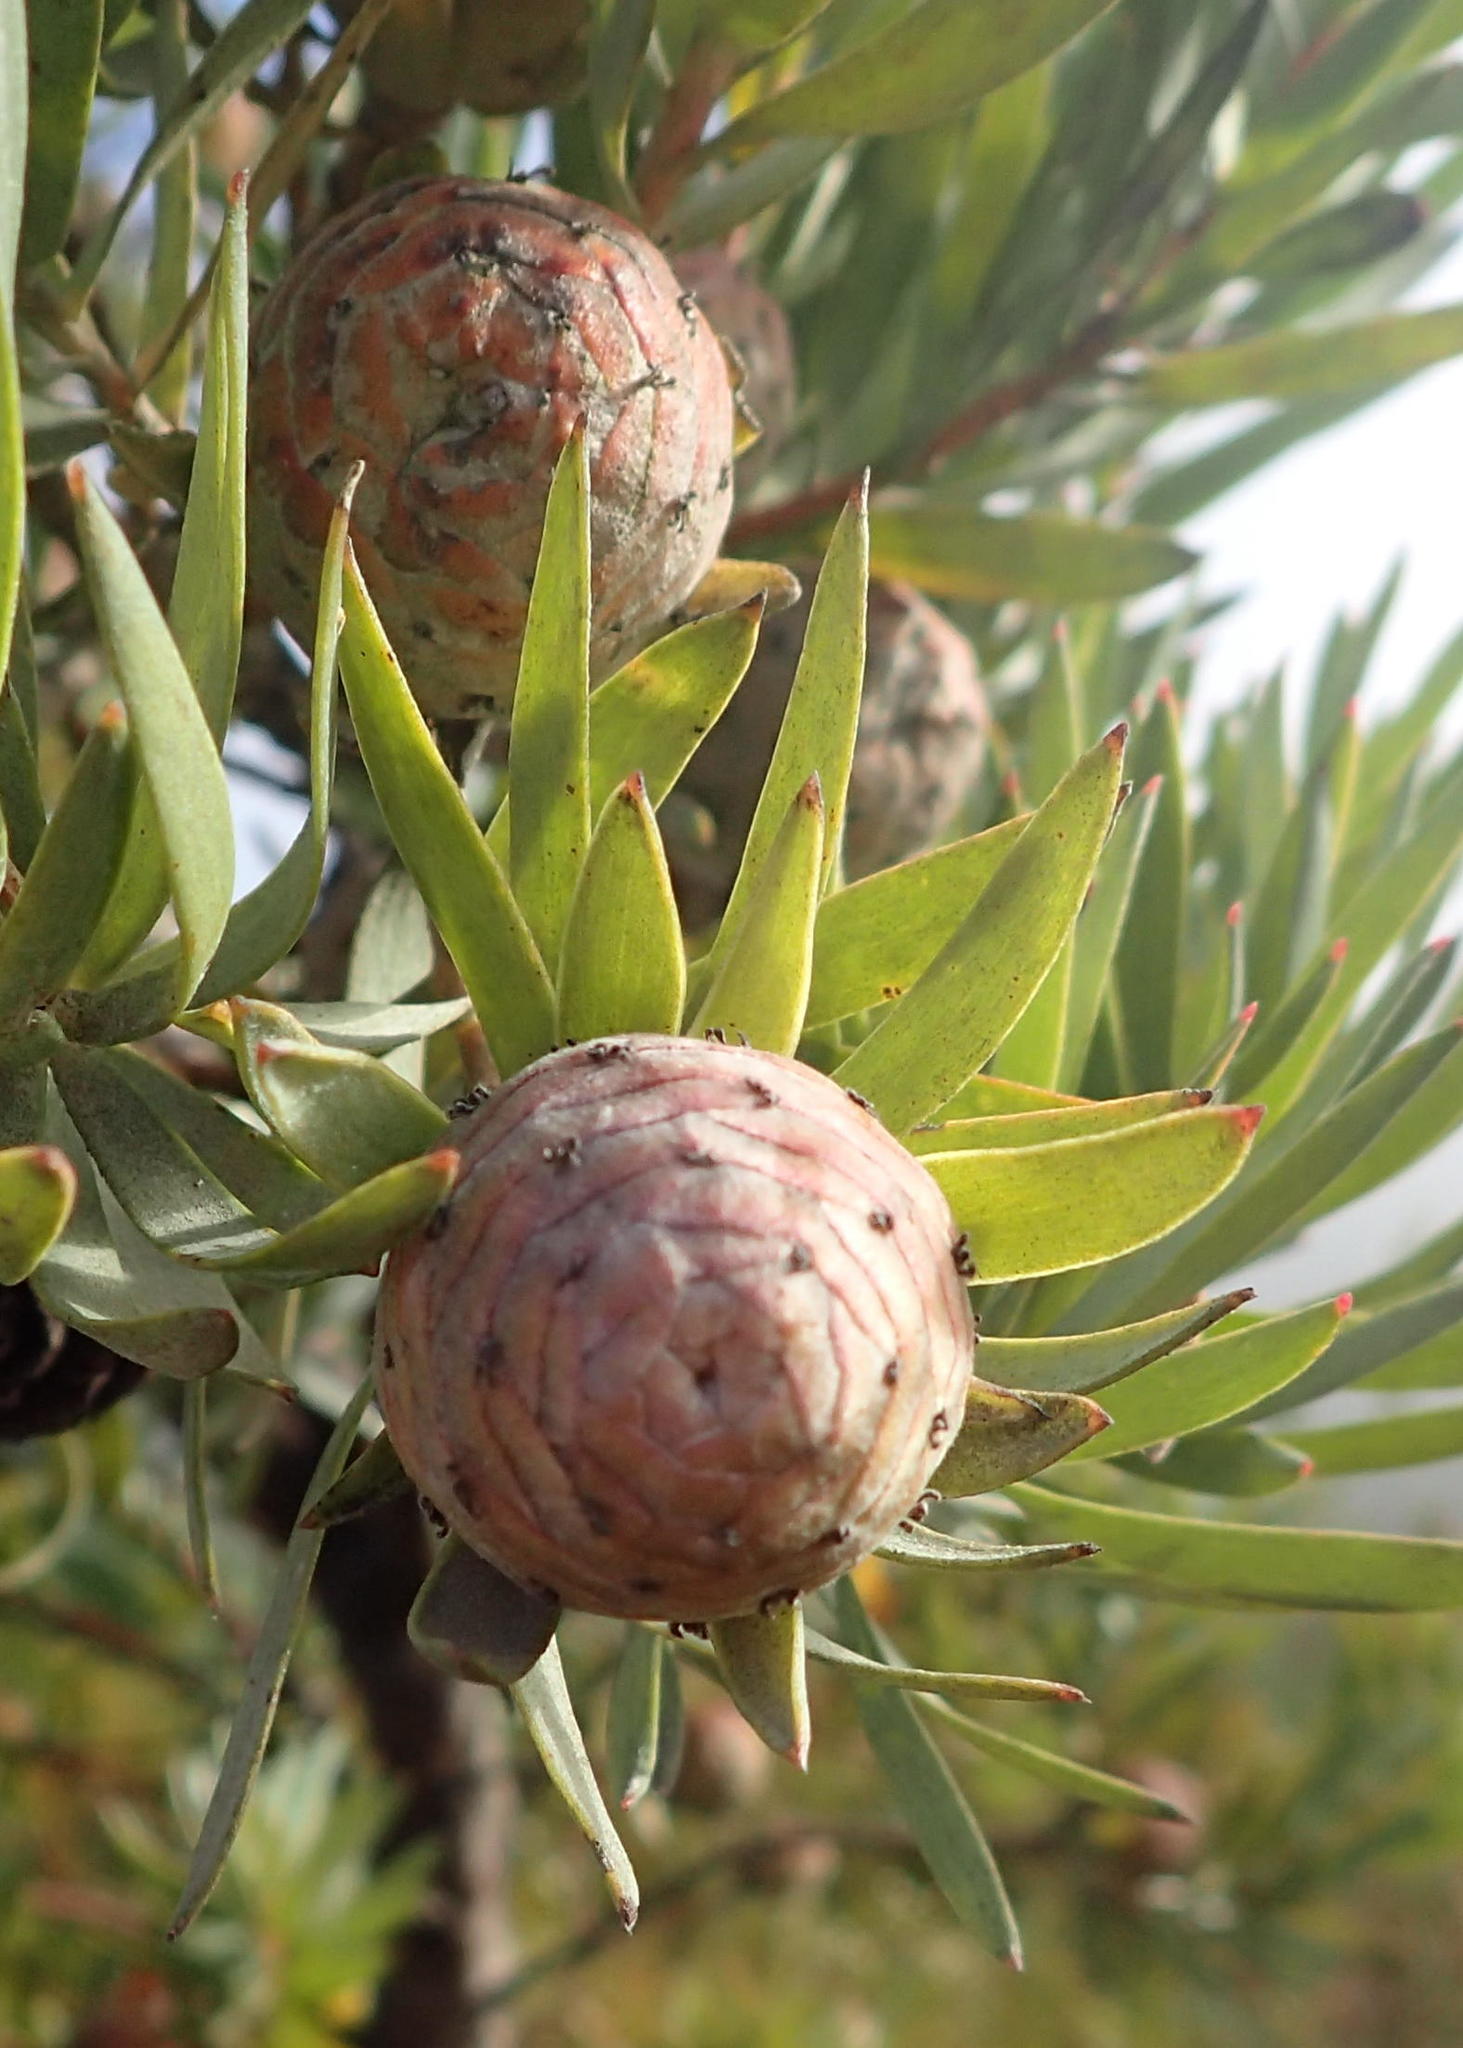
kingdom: Plantae
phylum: Tracheophyta
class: Magnoliopsida
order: Proteales
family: Proteaceae
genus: Leucadendron
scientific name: Leucadendron uliginosum
